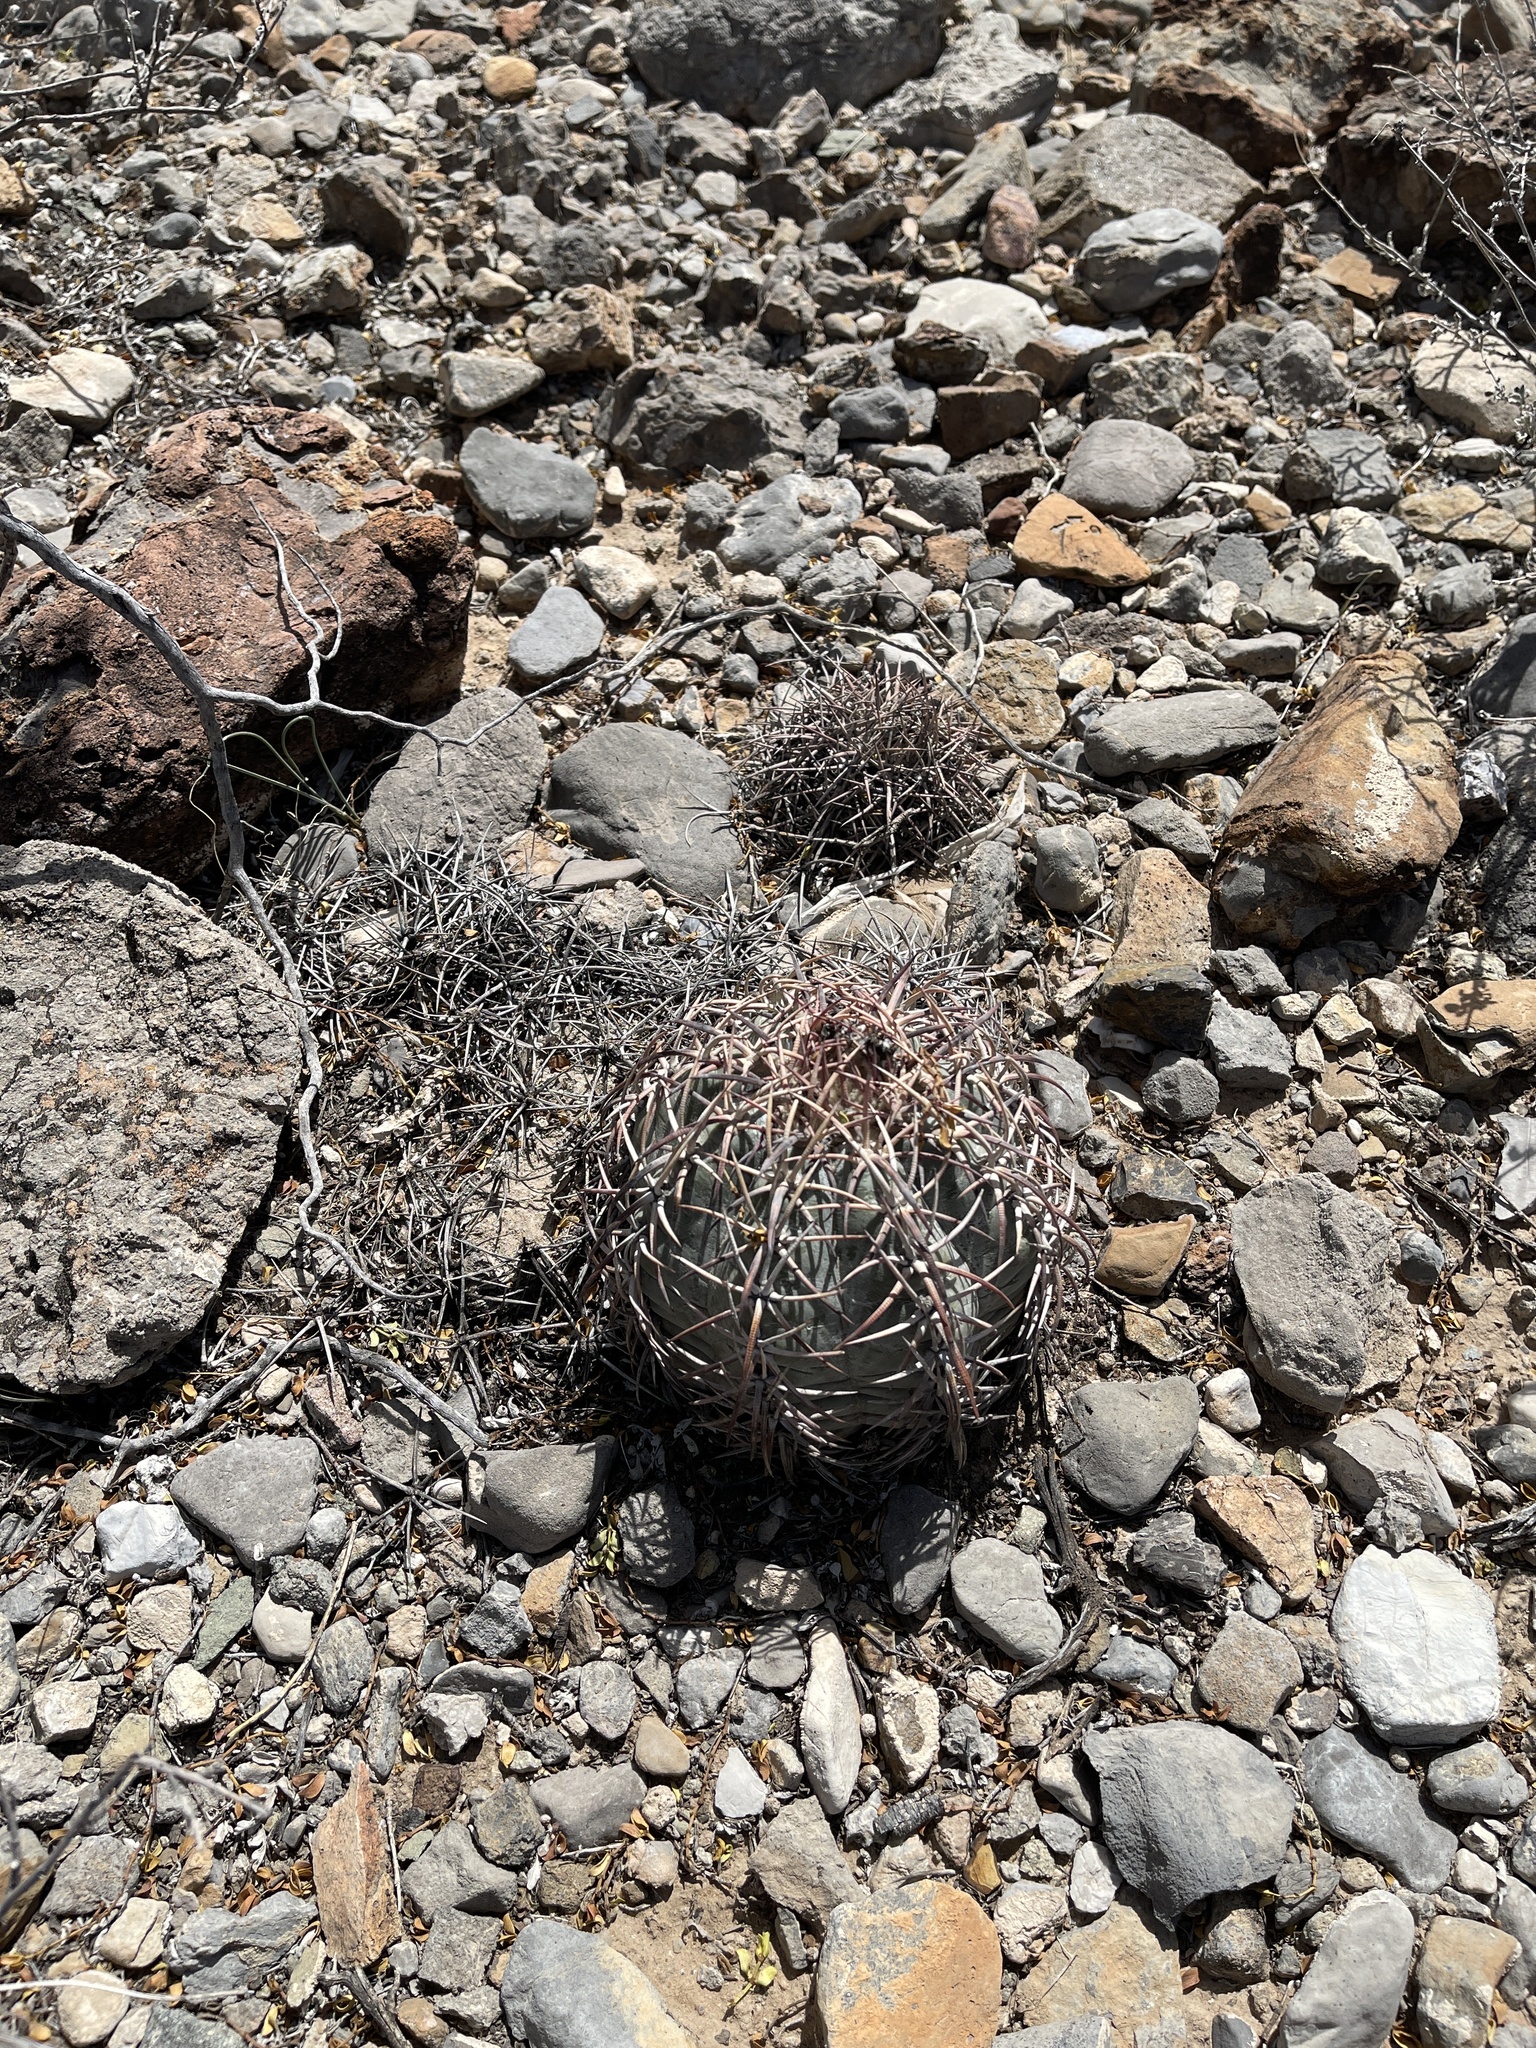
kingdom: Plantae
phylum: Tracheophyta
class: Magnoliopsida
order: Caryophyllales
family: Cactaceae
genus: Echinocactus
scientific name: Echinocactus horizonthalonius
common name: Devilshead
